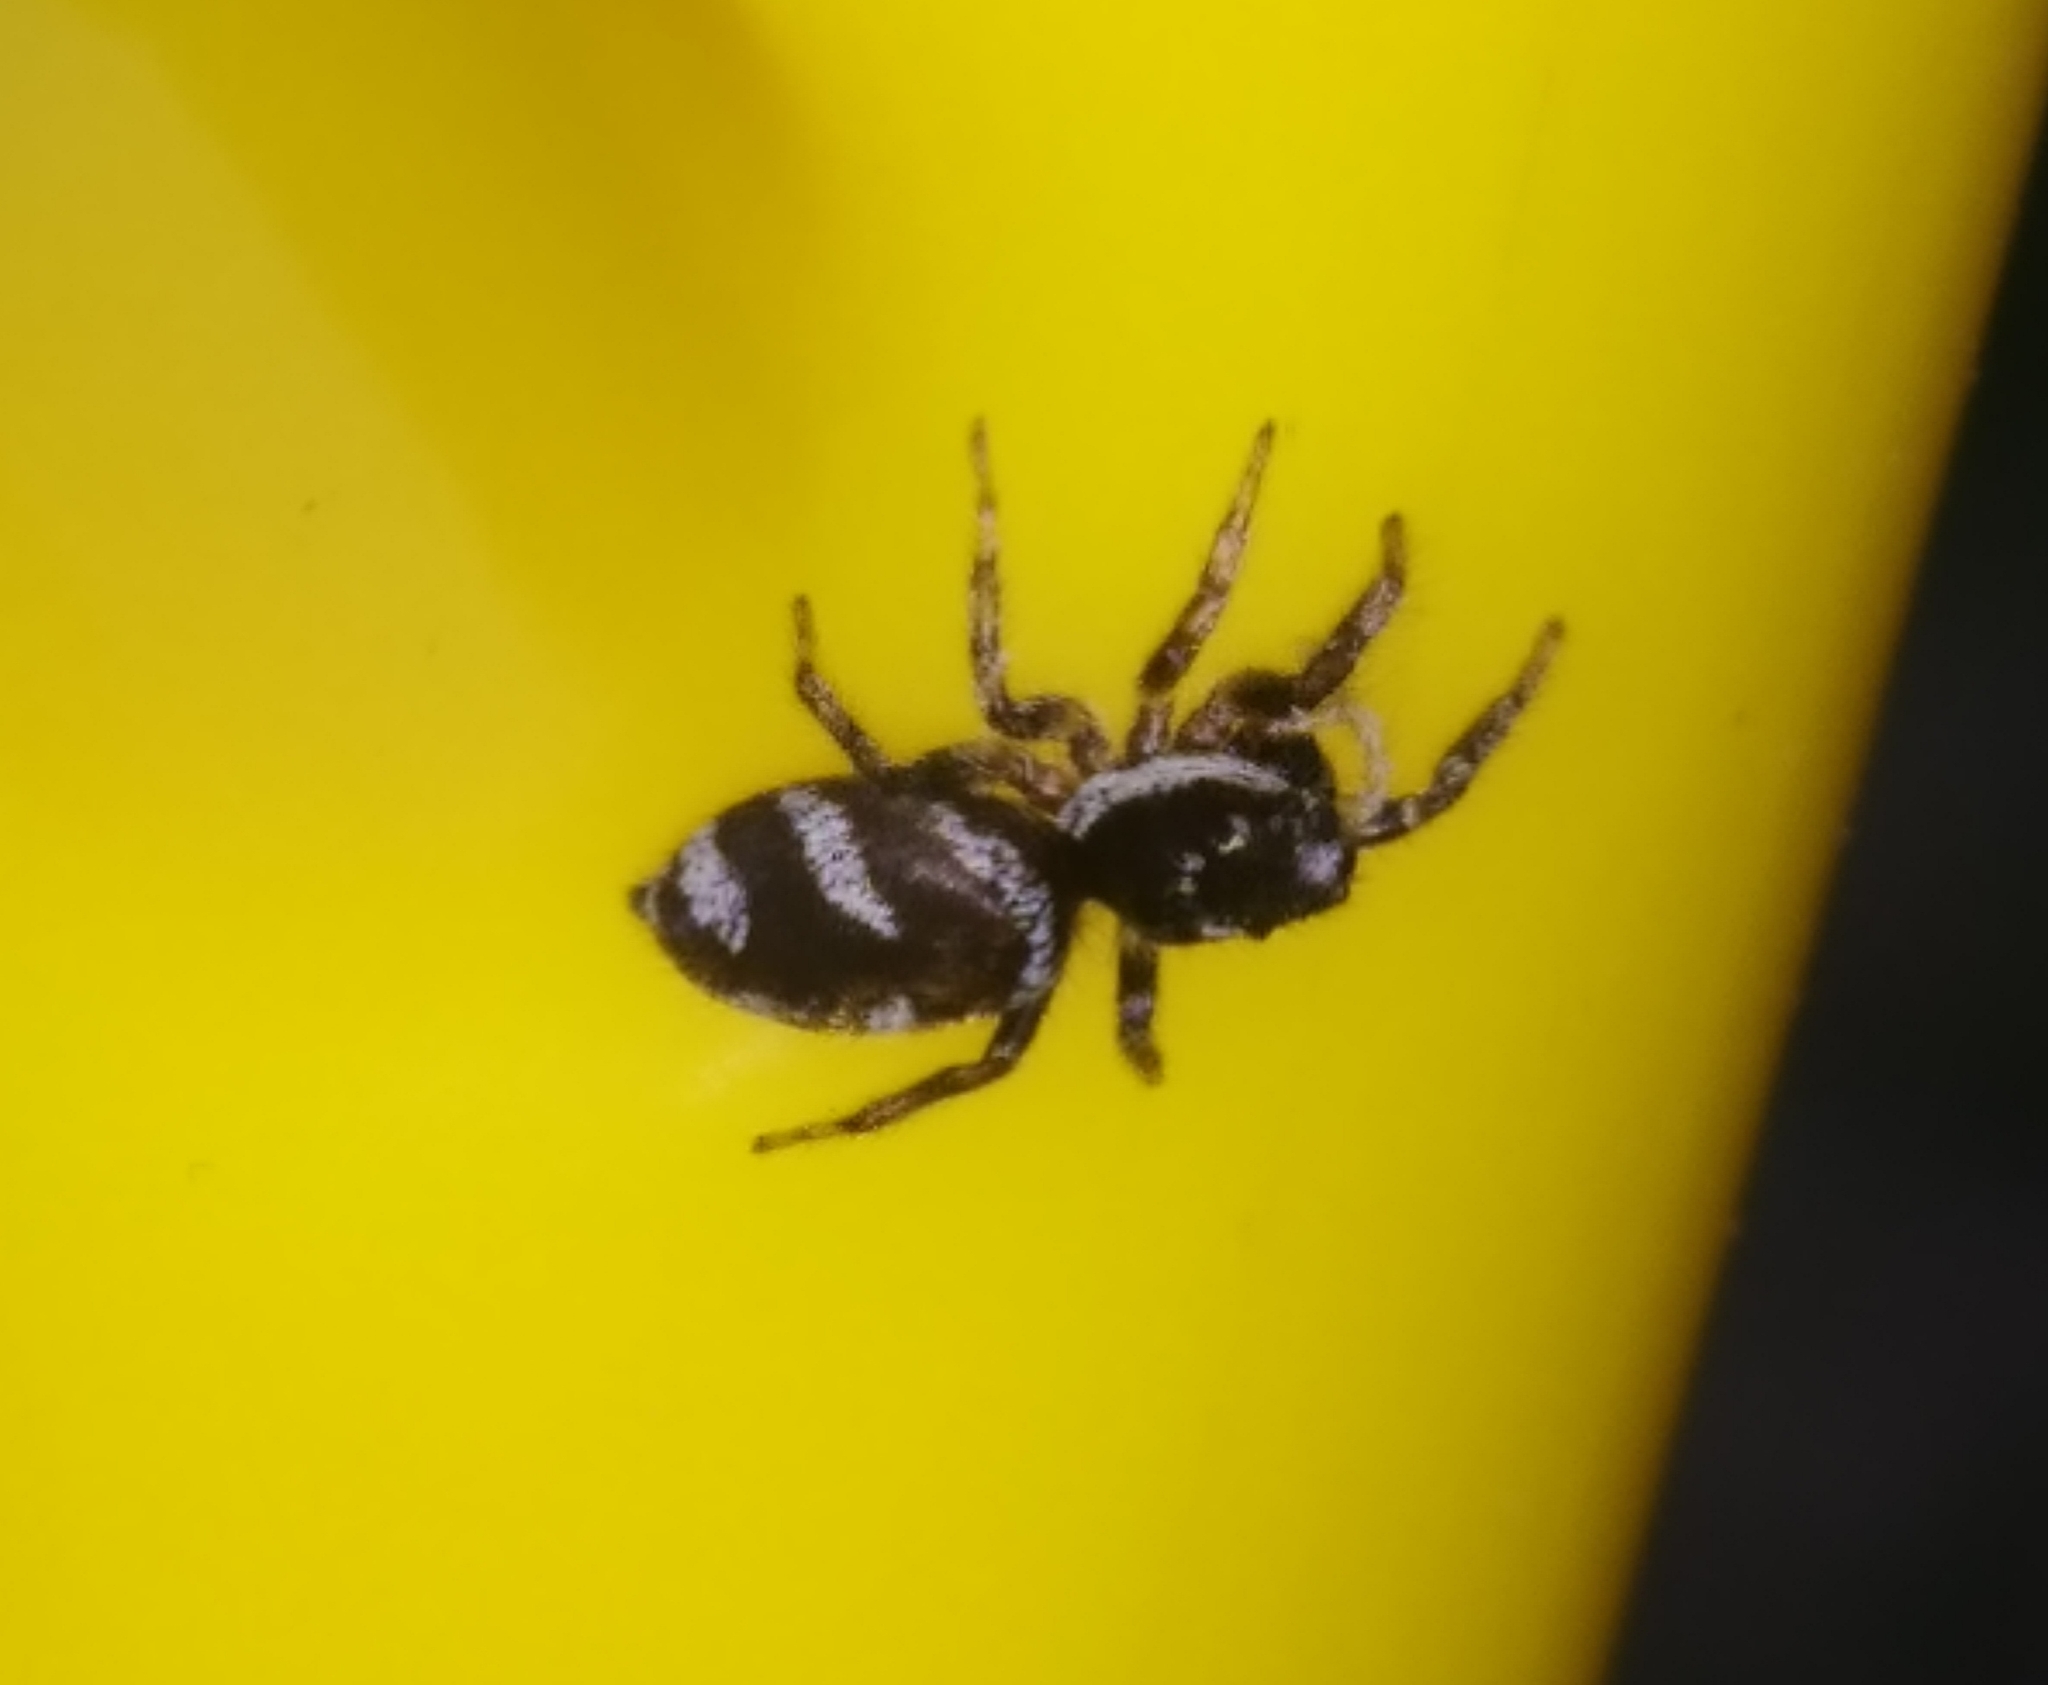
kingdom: Animalia
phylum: Arthropoda
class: Arachnida
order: Araneae
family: Salticidae
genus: Salticus
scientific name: Salticus scenicus
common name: Zebra jumper
